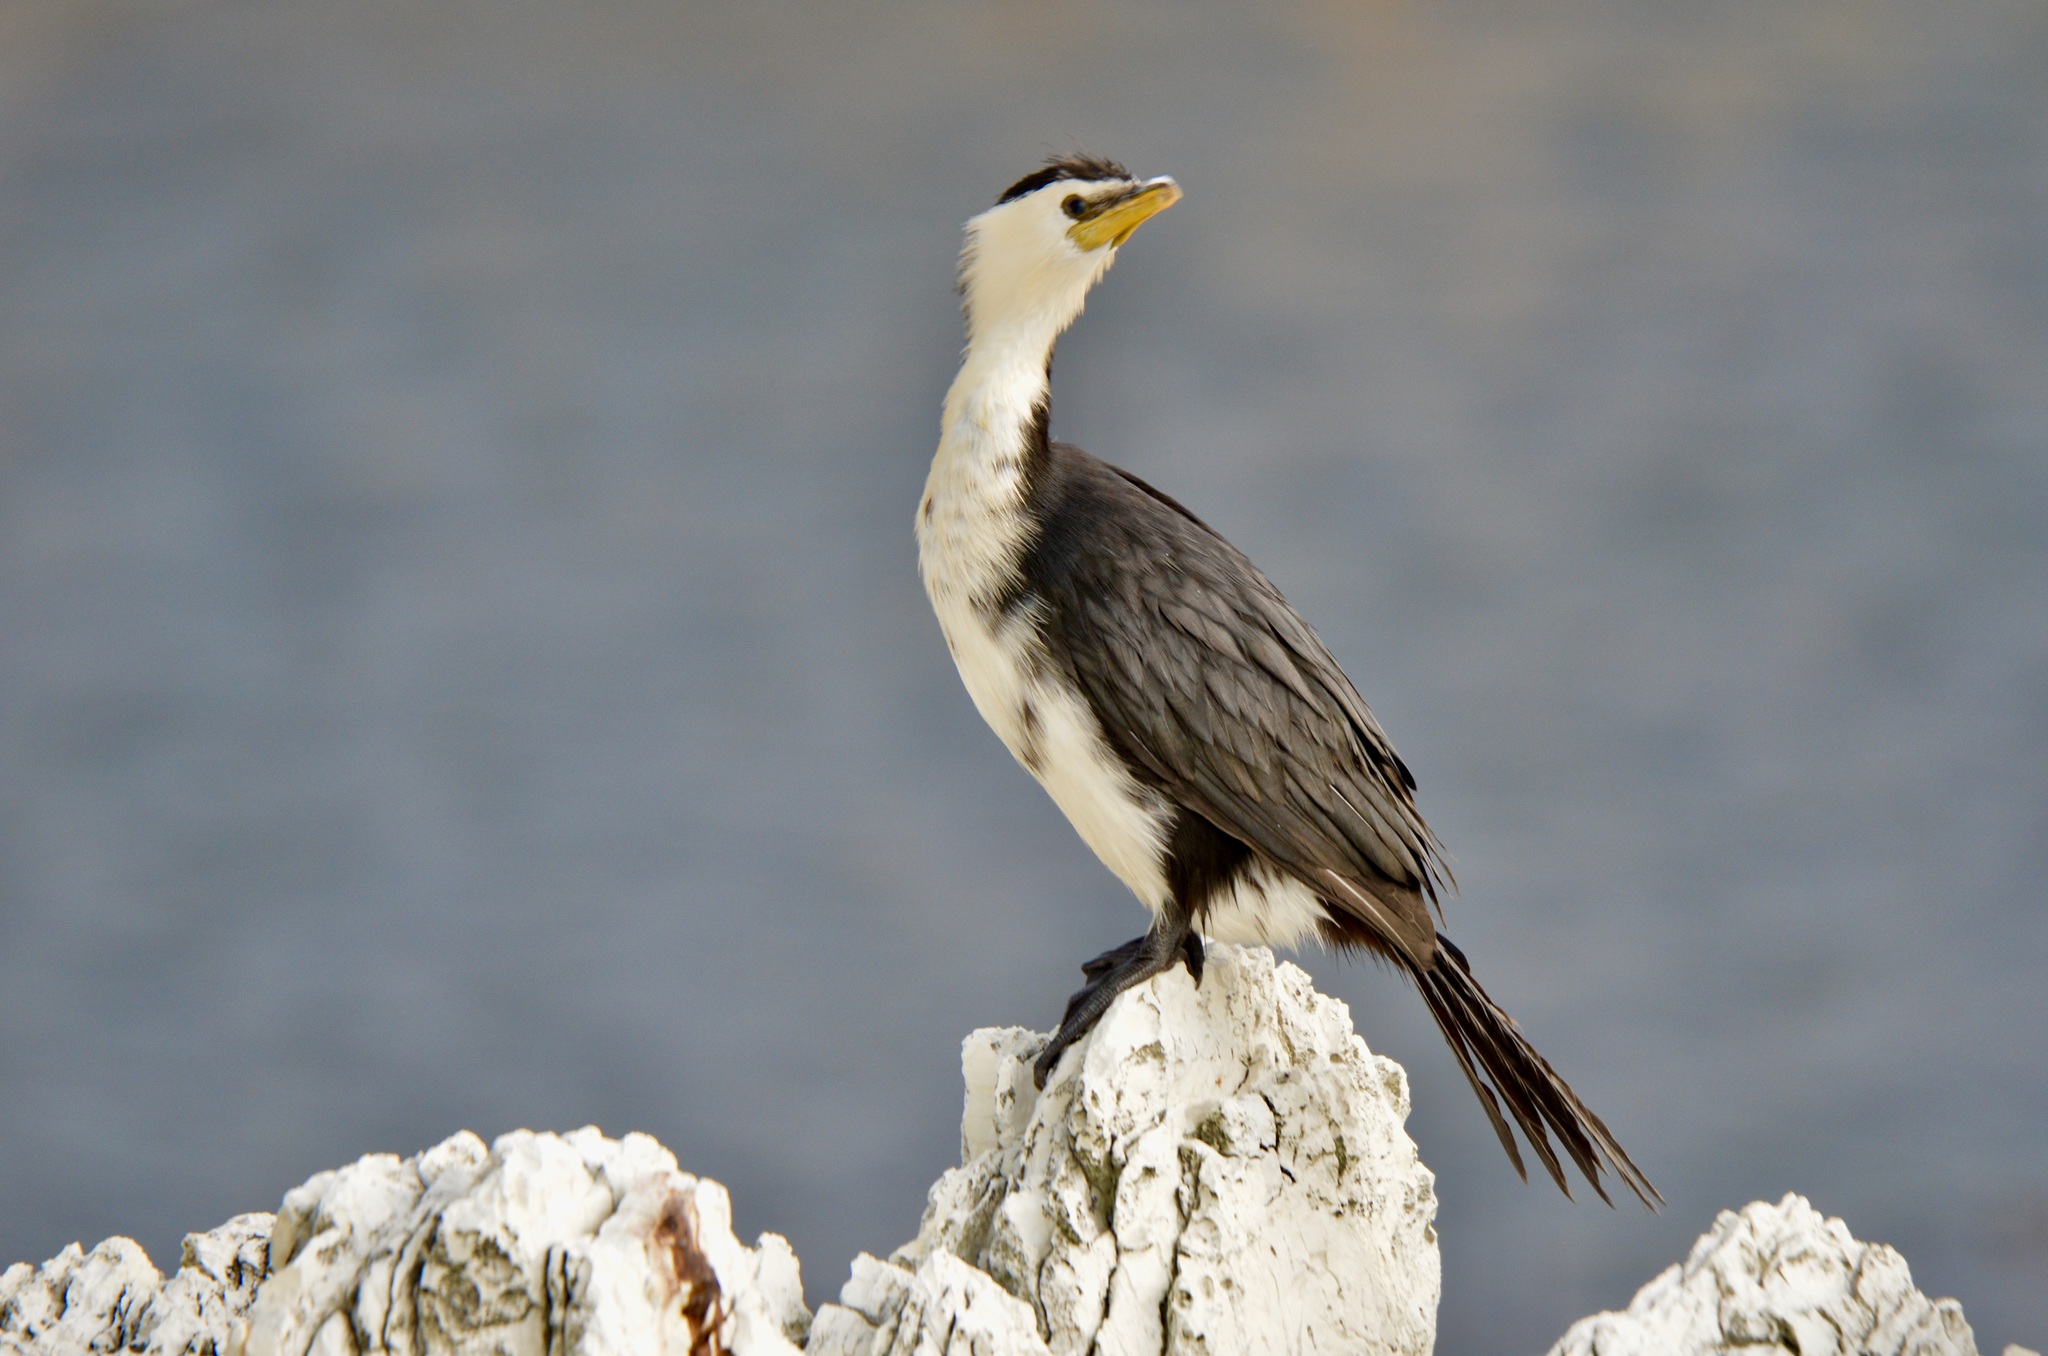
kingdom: Animalia
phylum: Chordata
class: Aves
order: Suliformes
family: Phalacrocoracidae
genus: Microcarbo
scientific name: Microcarbo melanoleucos
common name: Little pied cormorant
